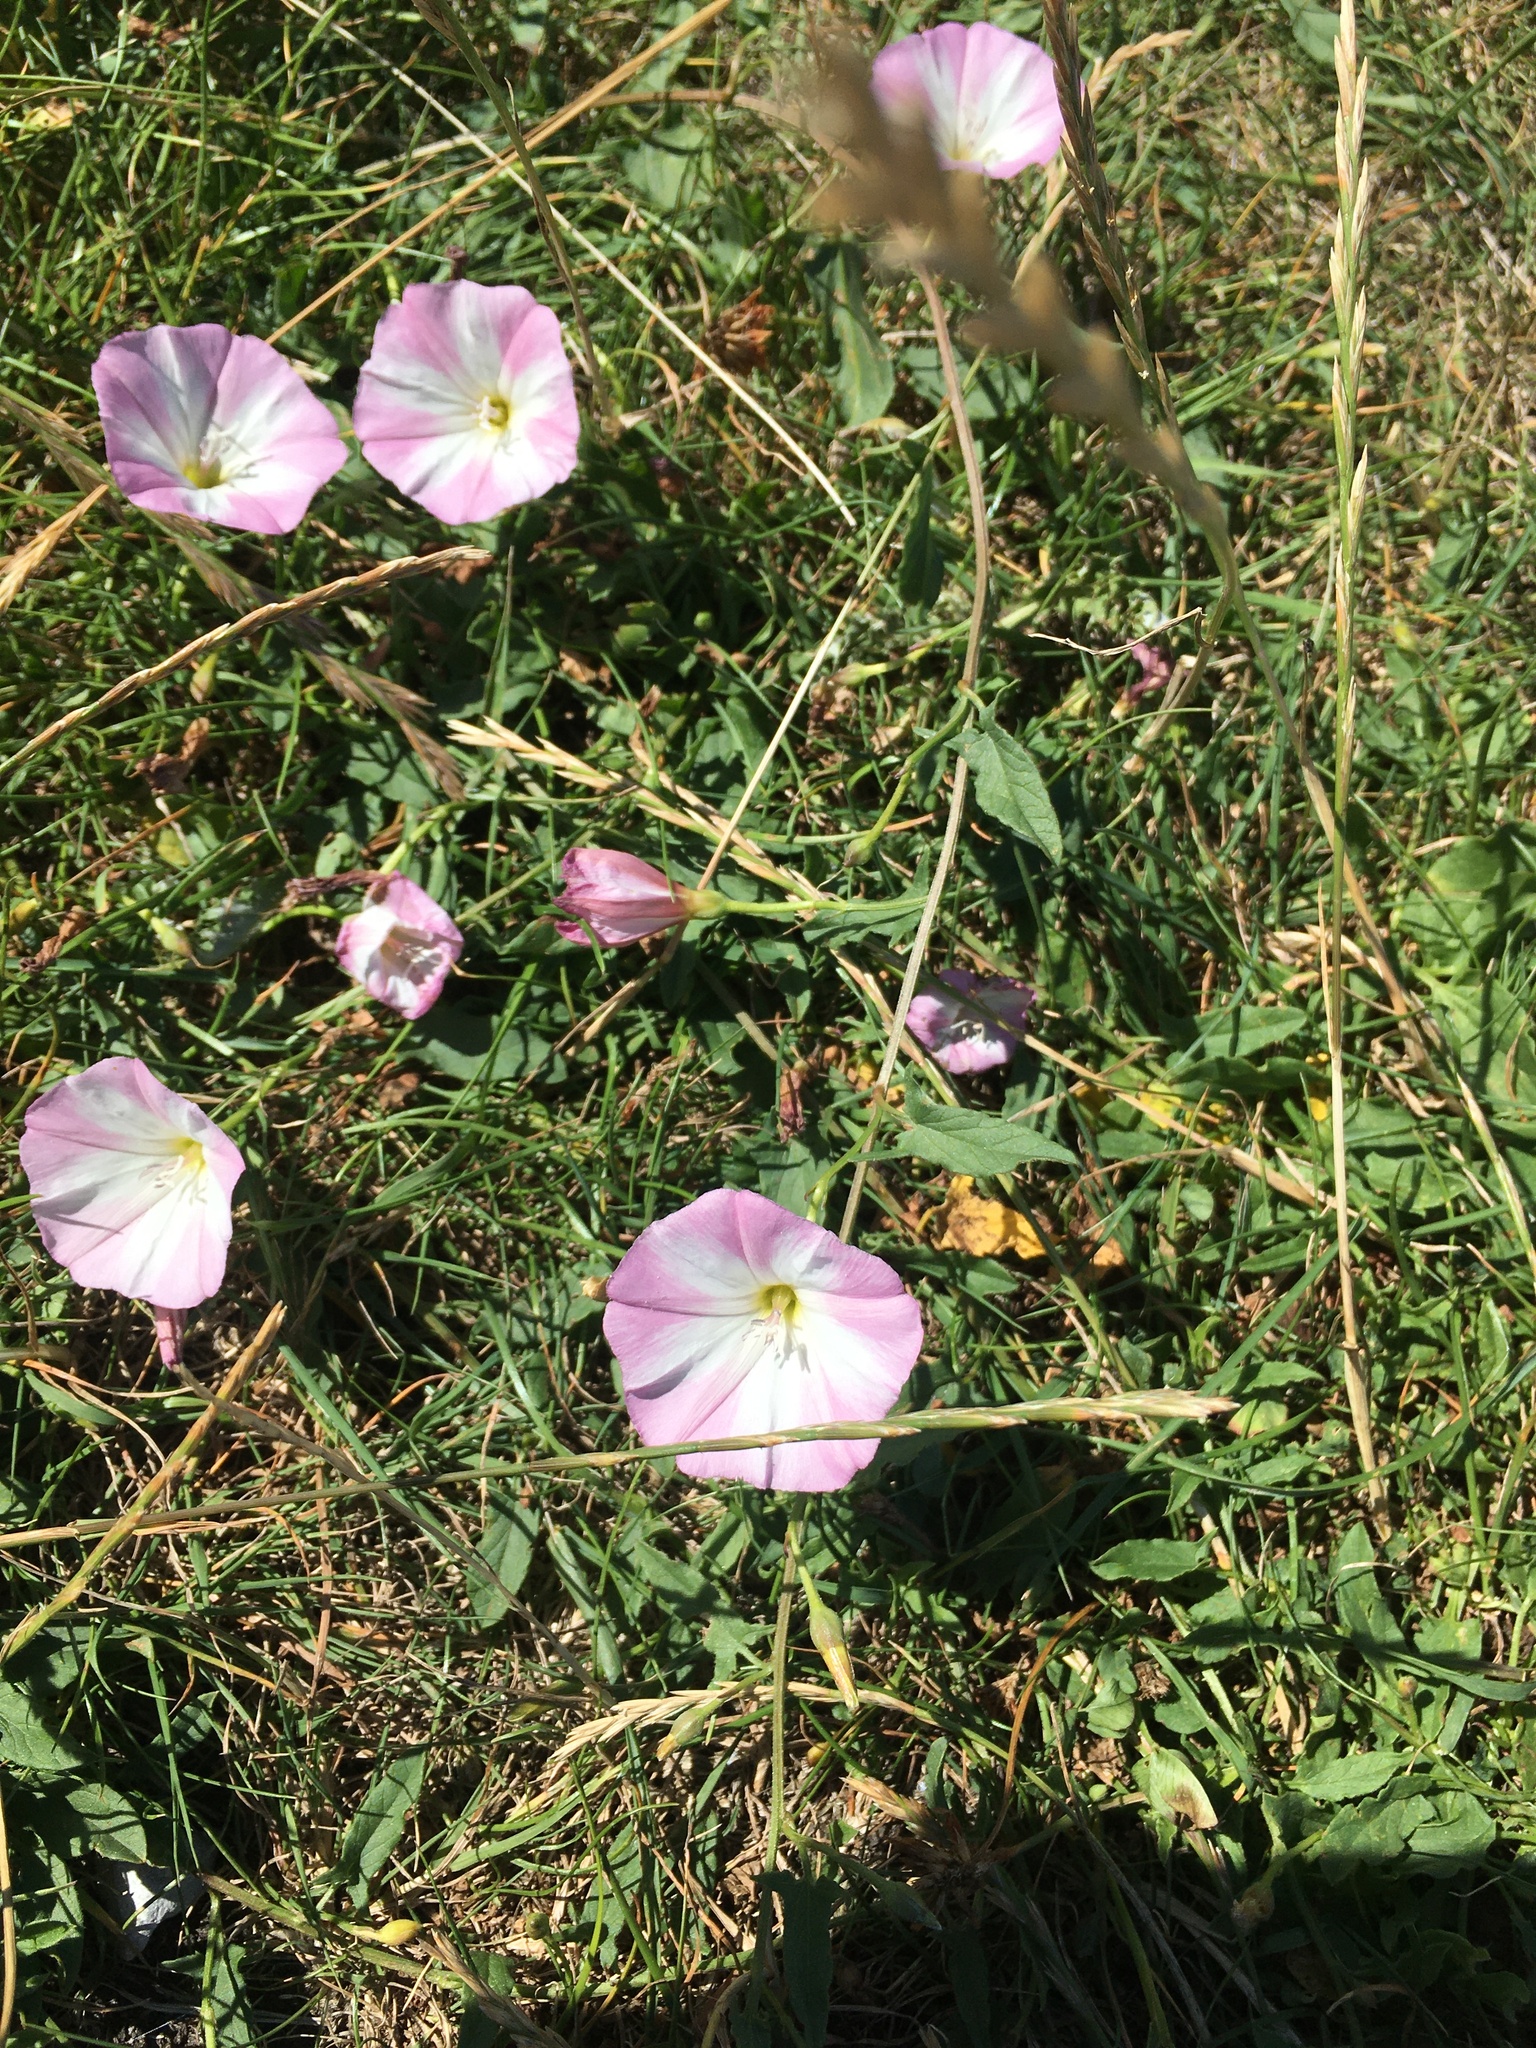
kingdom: Plantae
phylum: Tracheophyta
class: Magnoliopsida
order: Solanales
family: Convolvulaceae
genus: Convolvulus
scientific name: Convolvulus arvensis
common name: Field bindweed
